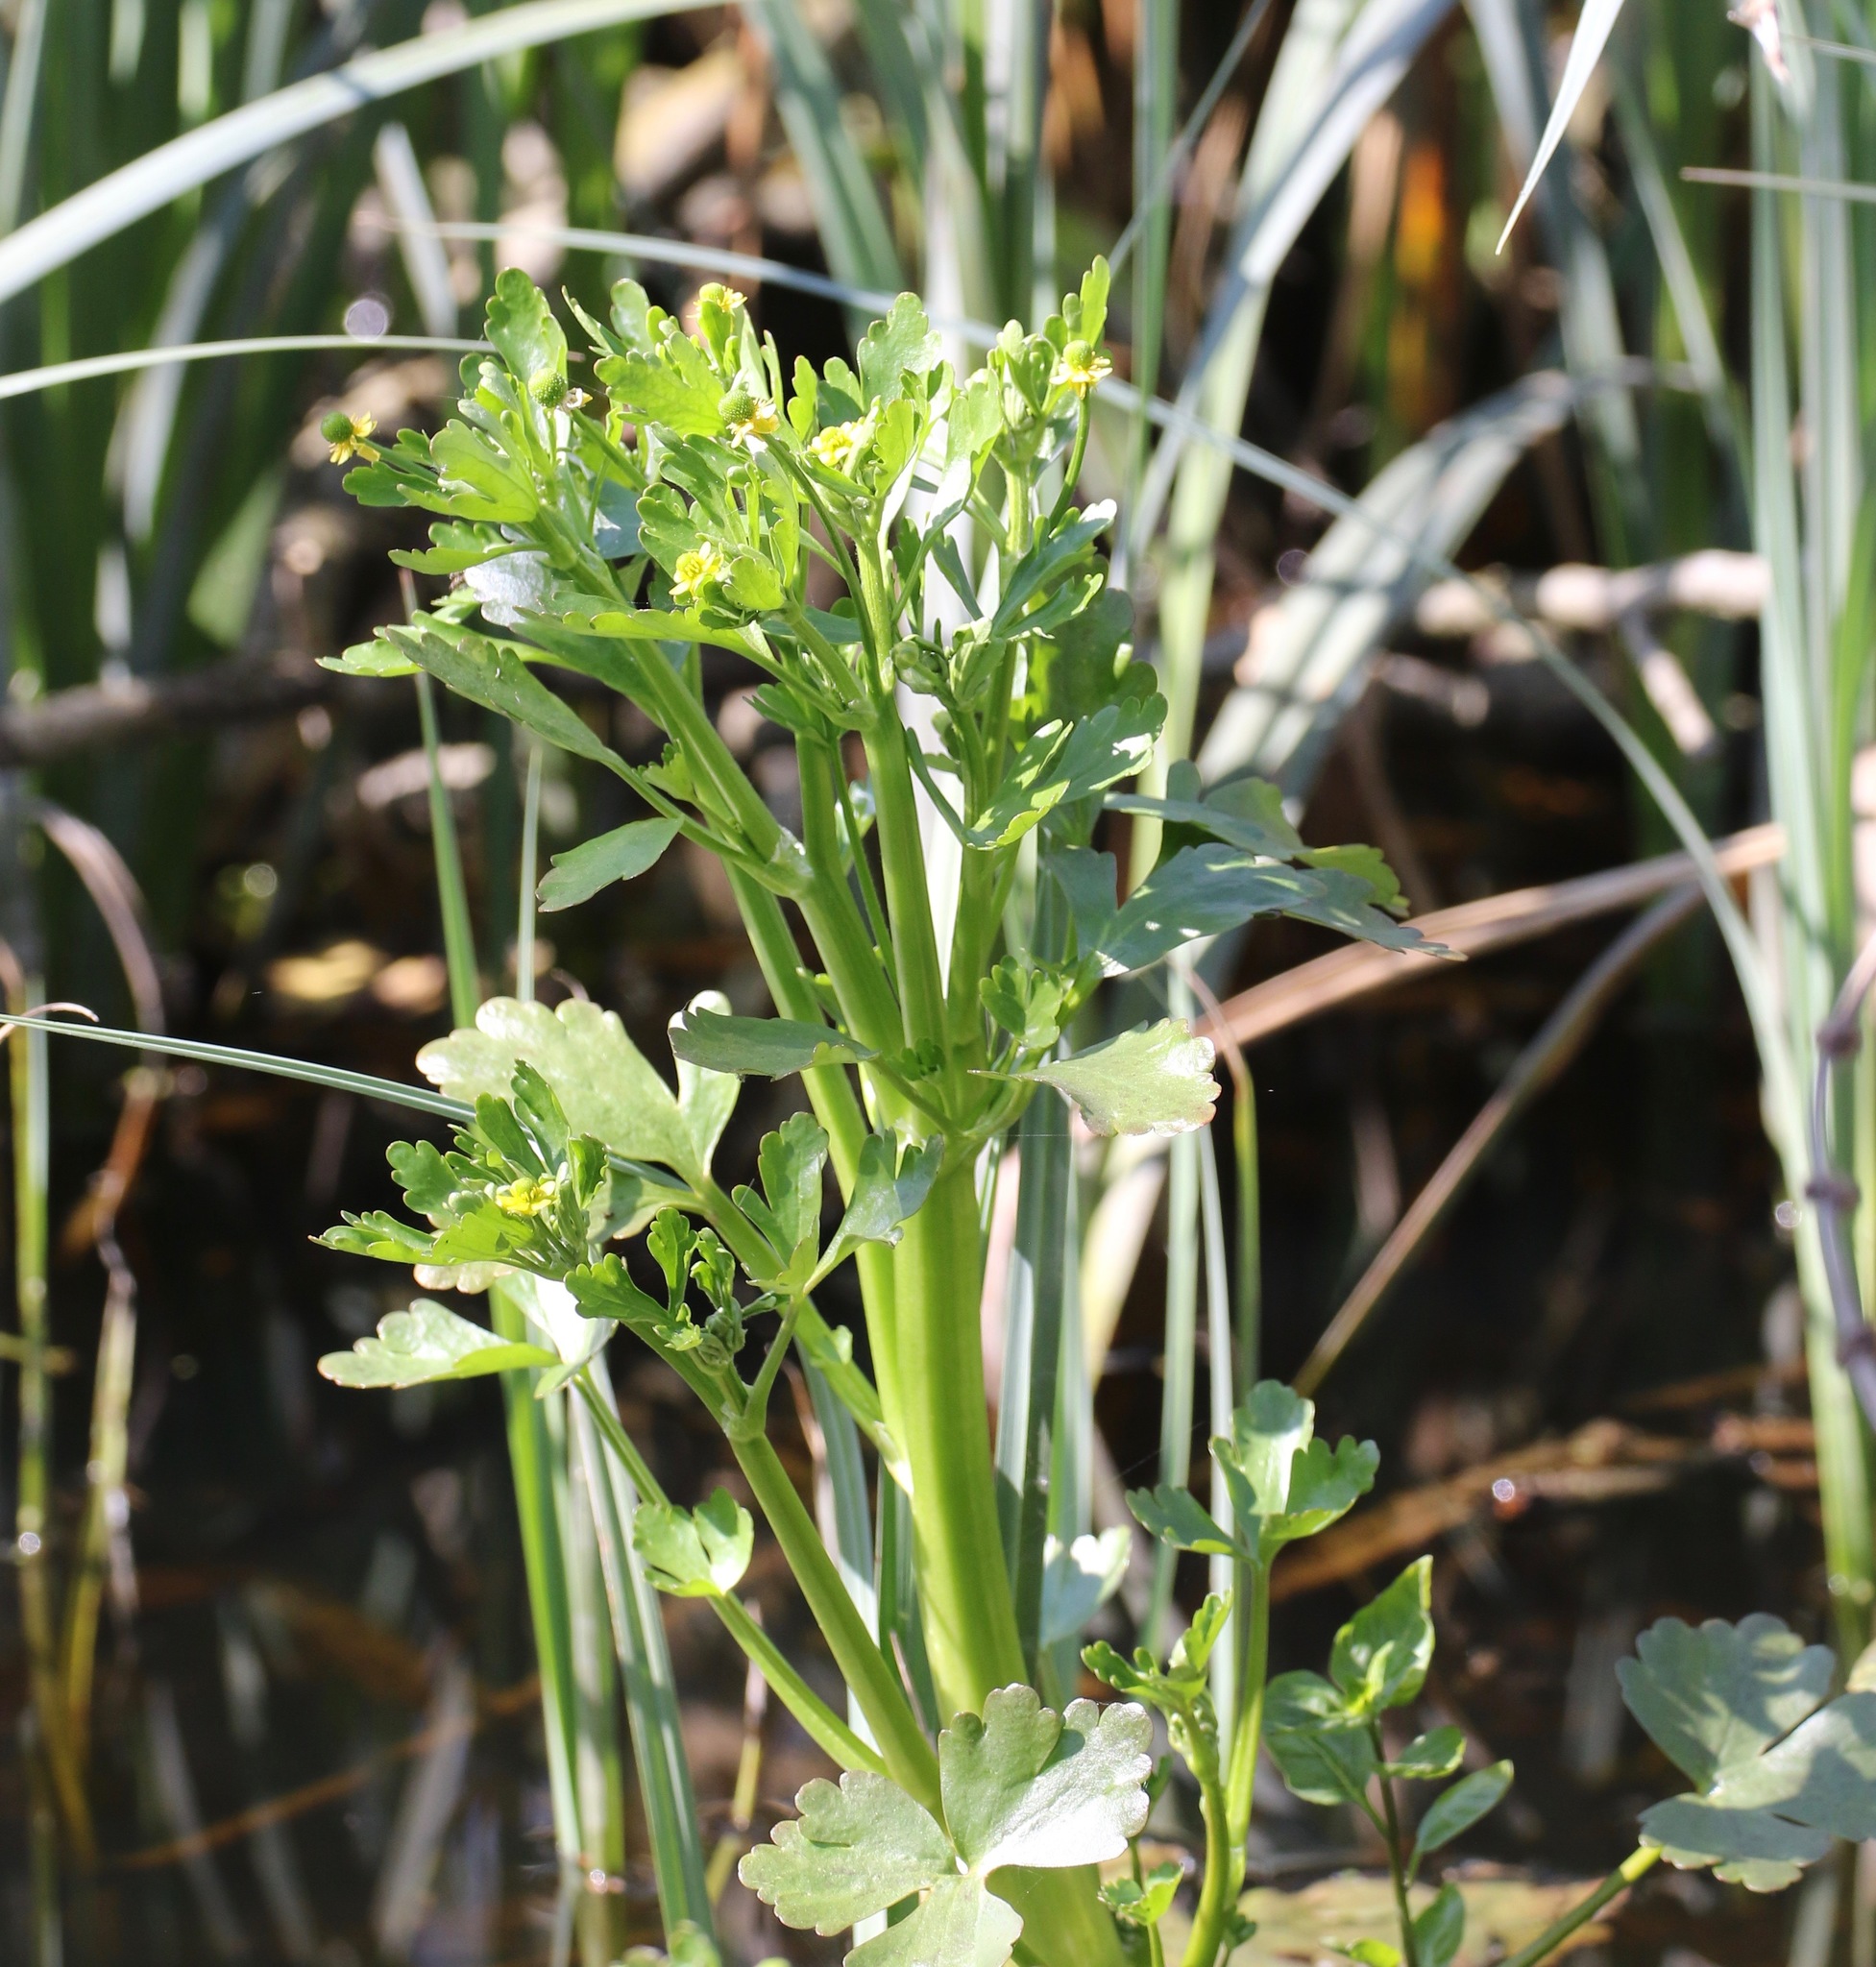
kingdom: Plantae
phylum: Tracheophyta
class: Magnoliopsida
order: Ranunculales
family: Ranunculaceae
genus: Ranunculus
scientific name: Ranunculus sceleratus
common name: Celery-leaved buttercup
